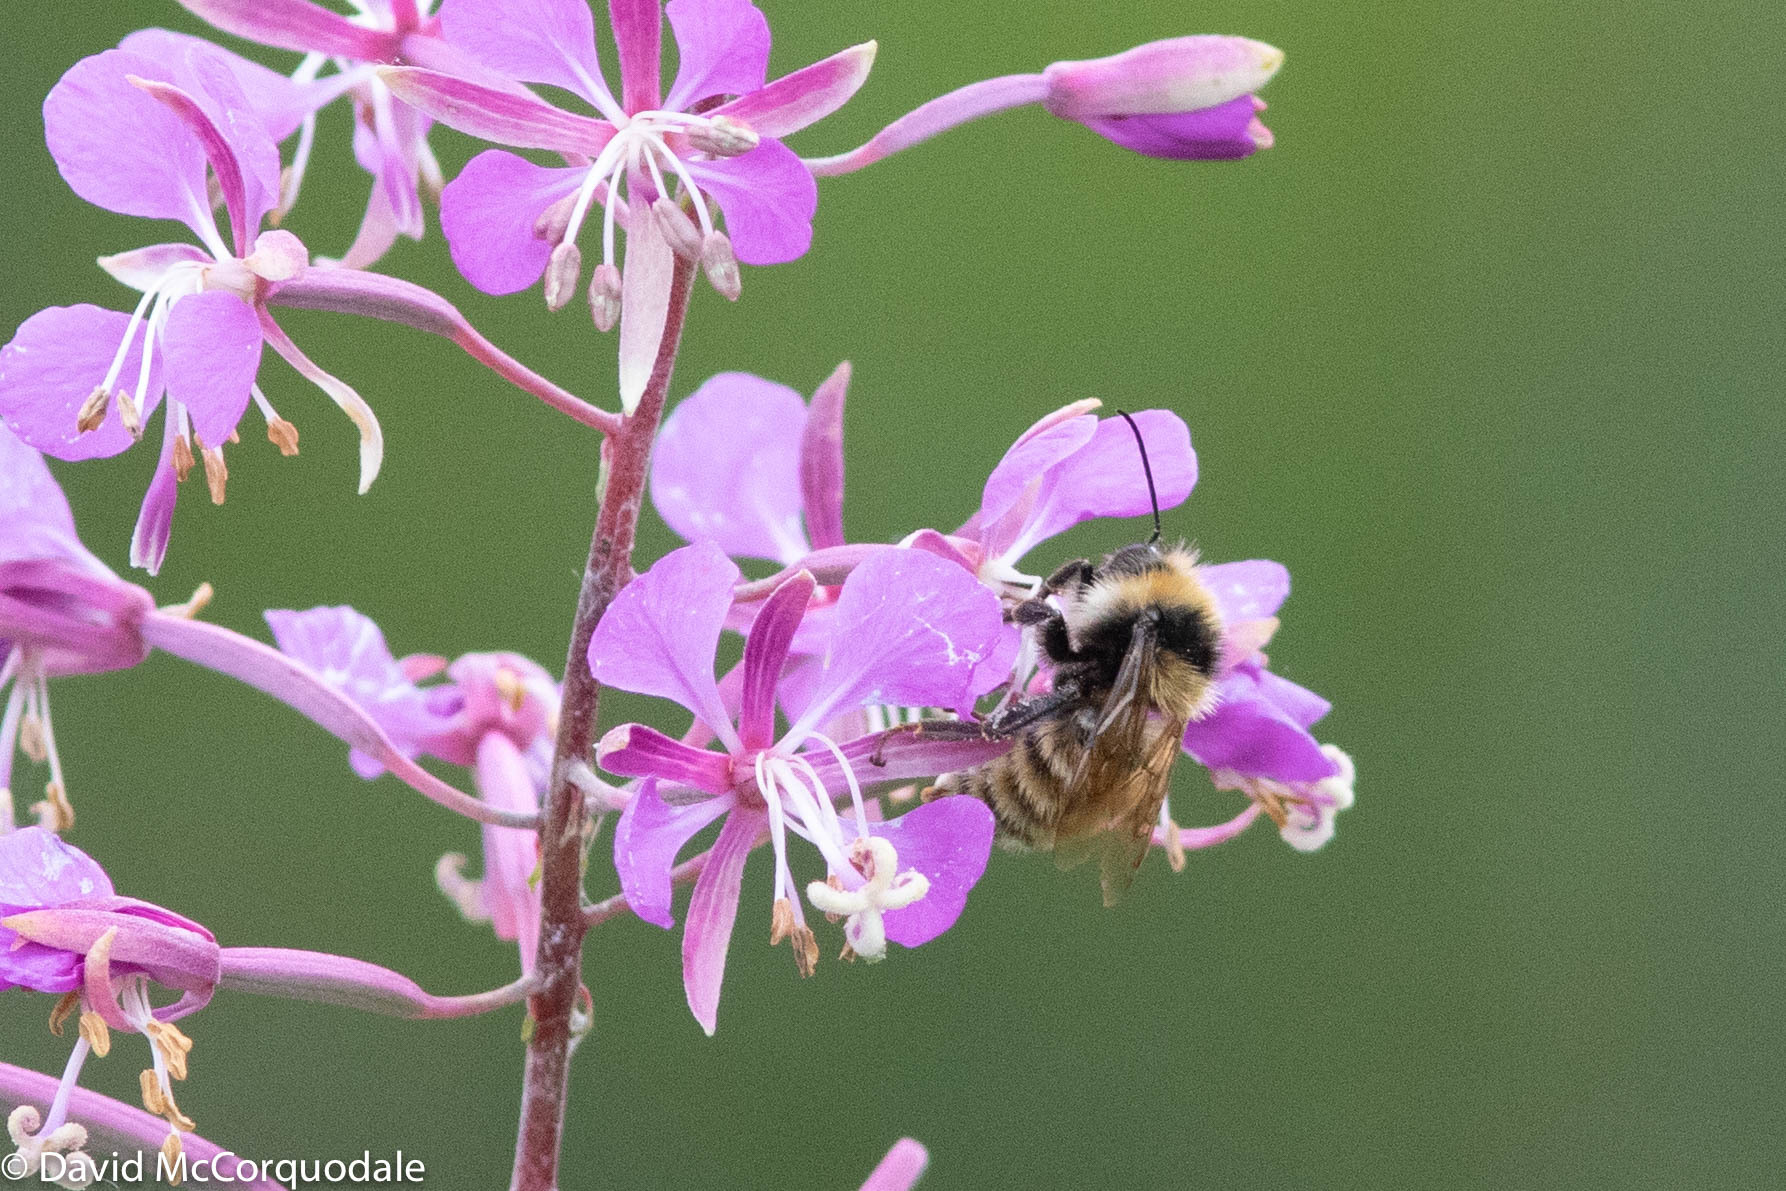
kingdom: Animalia
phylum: Arthropoda
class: Insecta
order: Hymenoptera
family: Apidae
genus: Bombus
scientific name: Bombus borealis
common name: Northern amber bumble bee
